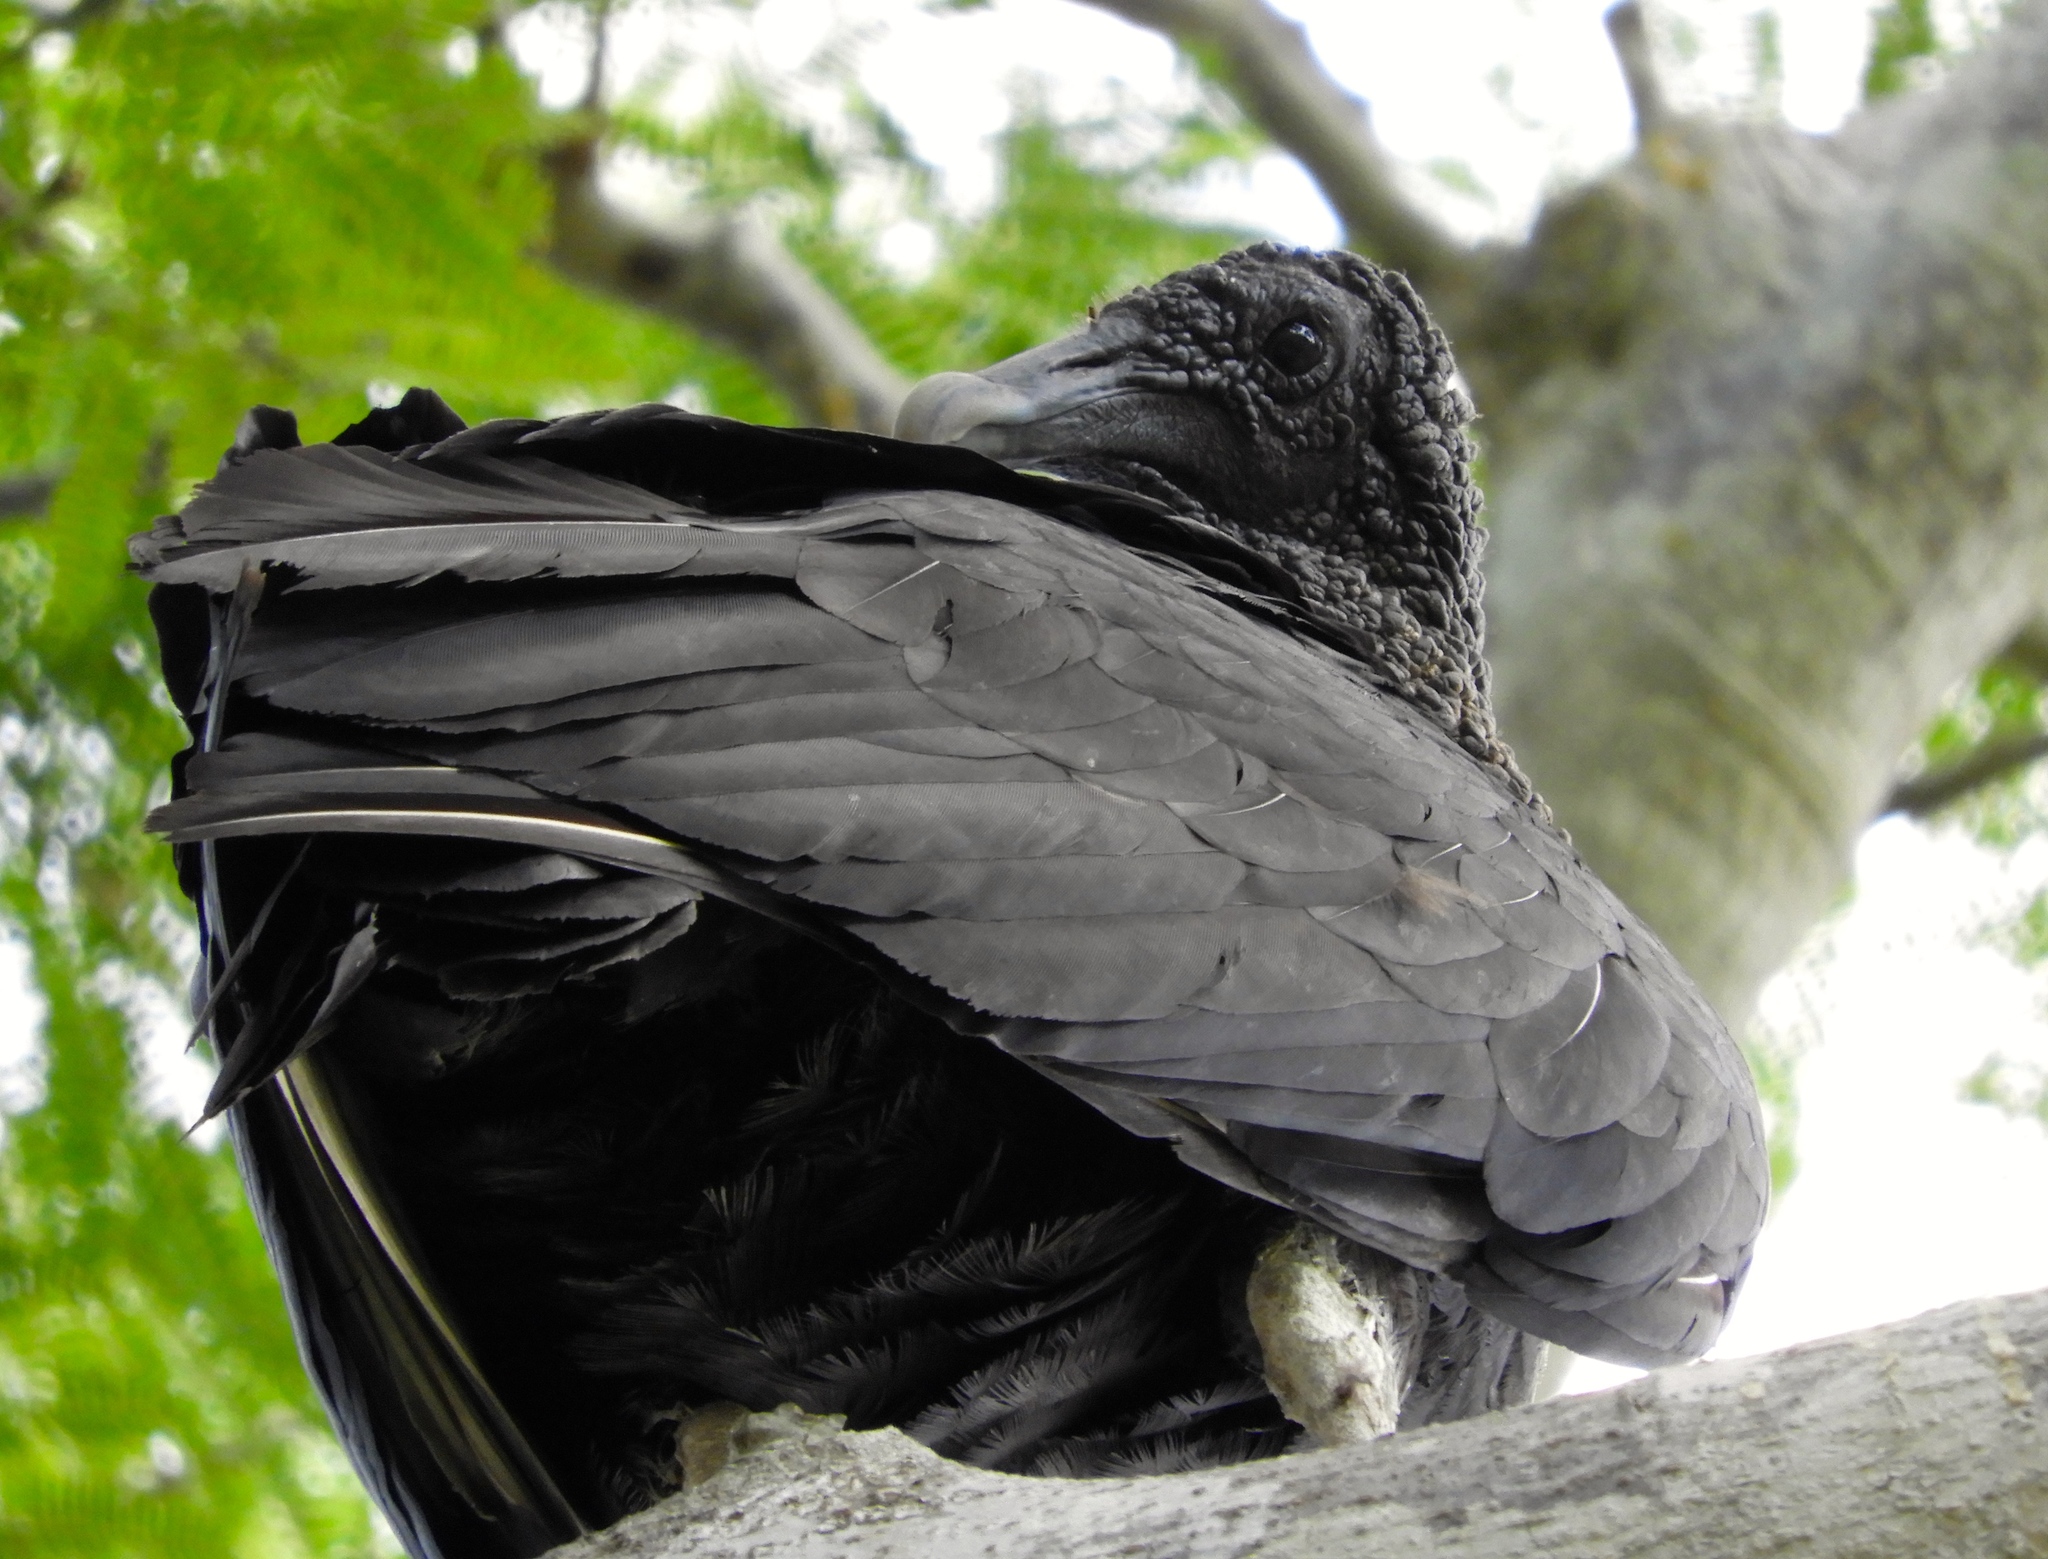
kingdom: Animalia
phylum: Chordata
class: Aves
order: Accipitriformes
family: Cathartidae
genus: Coragyps
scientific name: Coragyps atratus
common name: Black vulture
